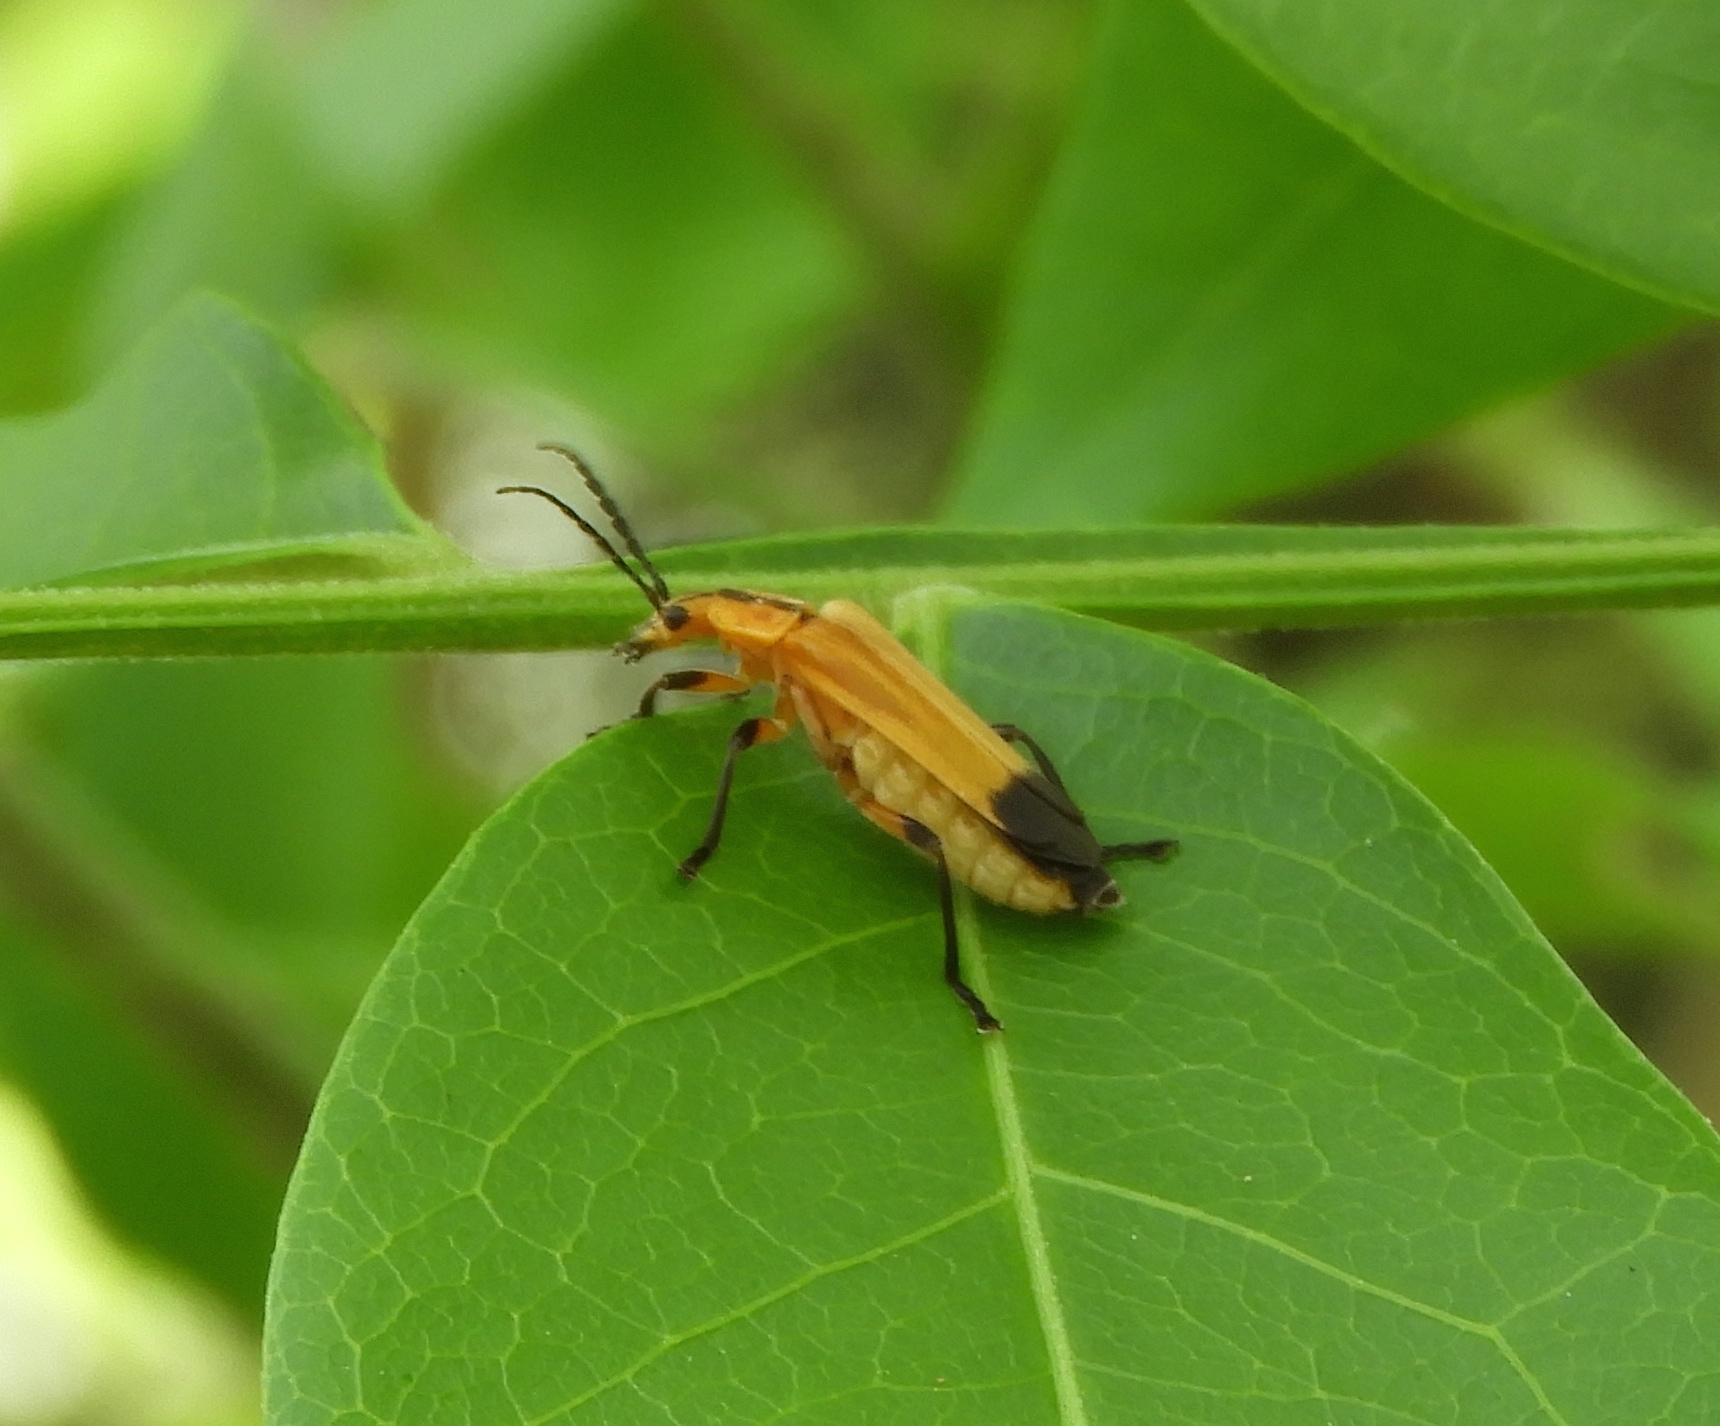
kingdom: Animalia
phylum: Arthropoda
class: Insecta
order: Coleoptera
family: Cantharidae
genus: Daiphron
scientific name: Daiphron proteum
